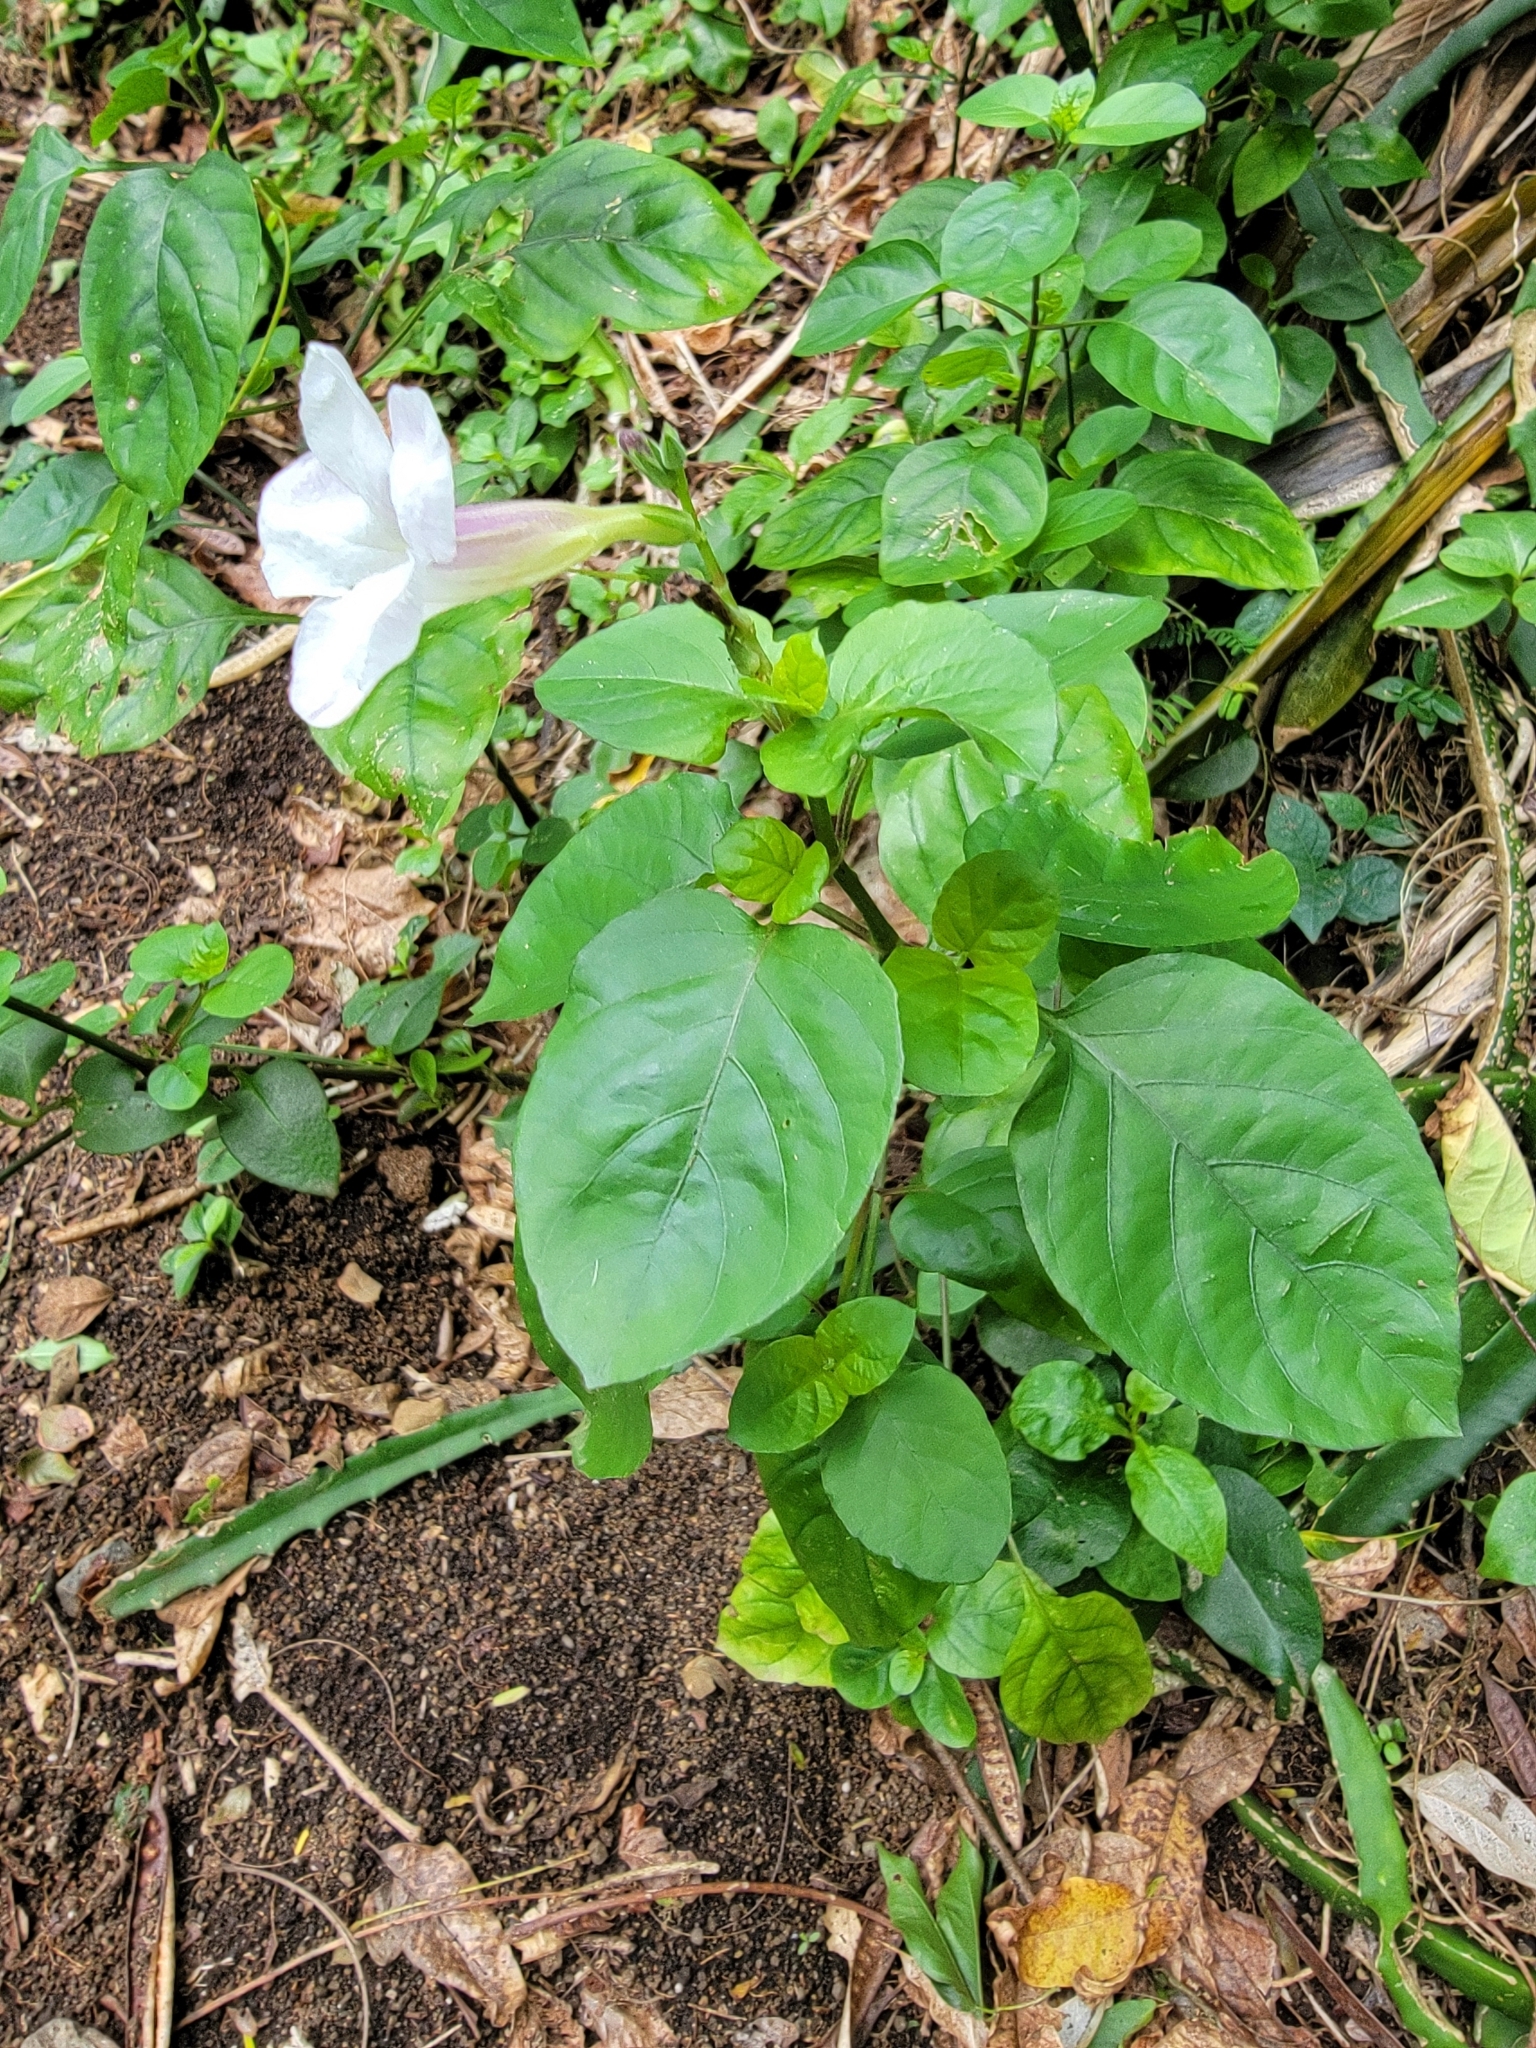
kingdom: Plantae
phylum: Tracheophyta
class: Magnoliopsida
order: Lamiales
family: Acanthaceae
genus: Asystasia
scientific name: Asystasia gangetica
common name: Chinese violet
